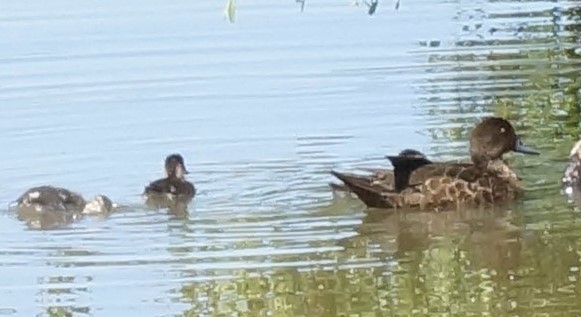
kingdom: Animalia
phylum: Chordata
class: Aves
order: Anseriformes
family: Anatidae
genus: Anas
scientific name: Anas castanea
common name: Chestnut teal
